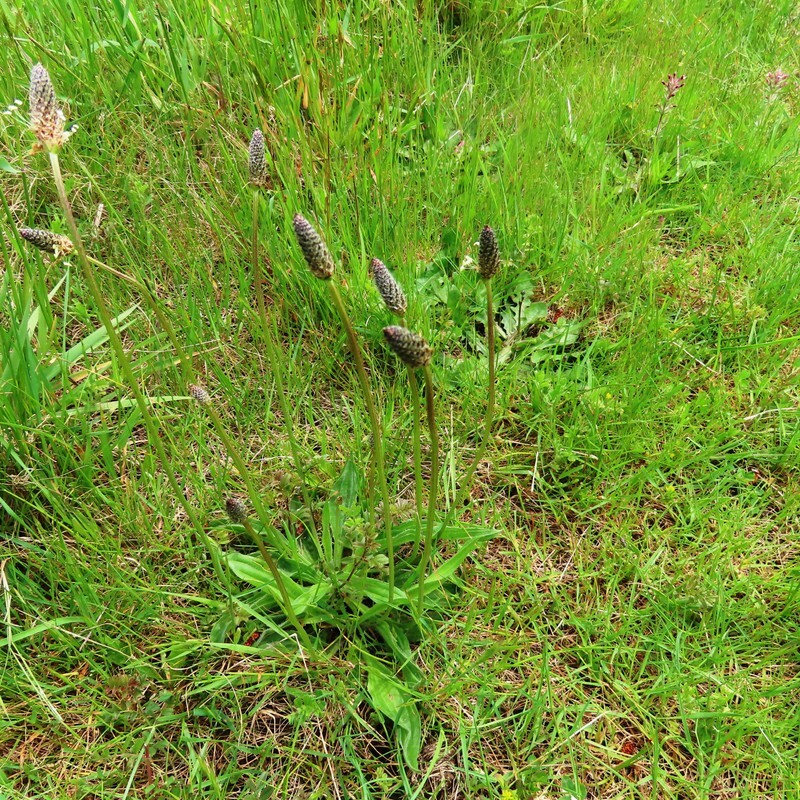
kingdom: Plantae
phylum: Tracheophyta
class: Magnoliopsida
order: Lamiales
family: Plantaginaceae
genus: Plantago
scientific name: Plantago lanceolata
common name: Ribwort plantain
